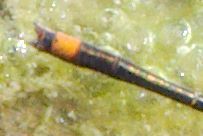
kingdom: Animalia
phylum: Arthropoda
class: Insecta
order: Odonata
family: Coenagrionidae
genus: Enallagma
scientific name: Enallagma pollutum
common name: Florida bluet
